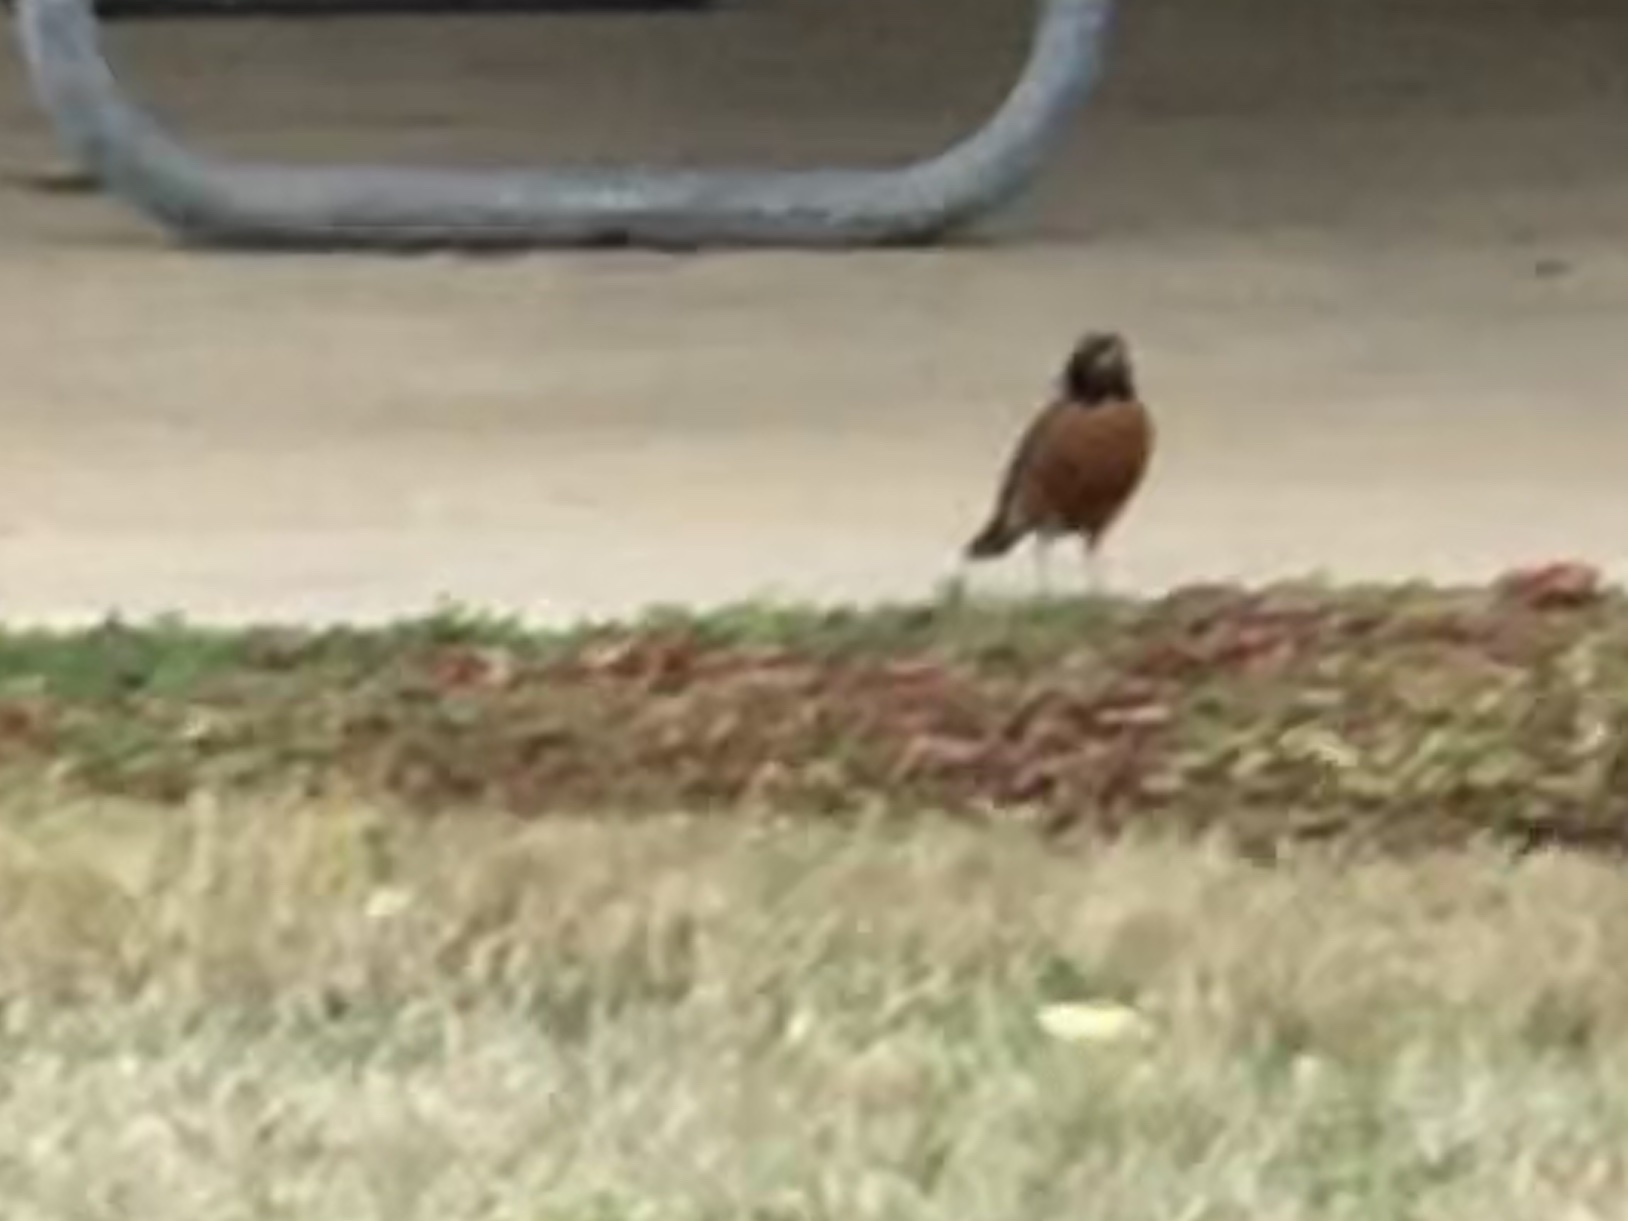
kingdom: Animalia
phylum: Chordata
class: Aves
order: Passeriformes
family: Turdidae
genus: Turdus
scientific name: Turdus migratorius
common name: American robin
